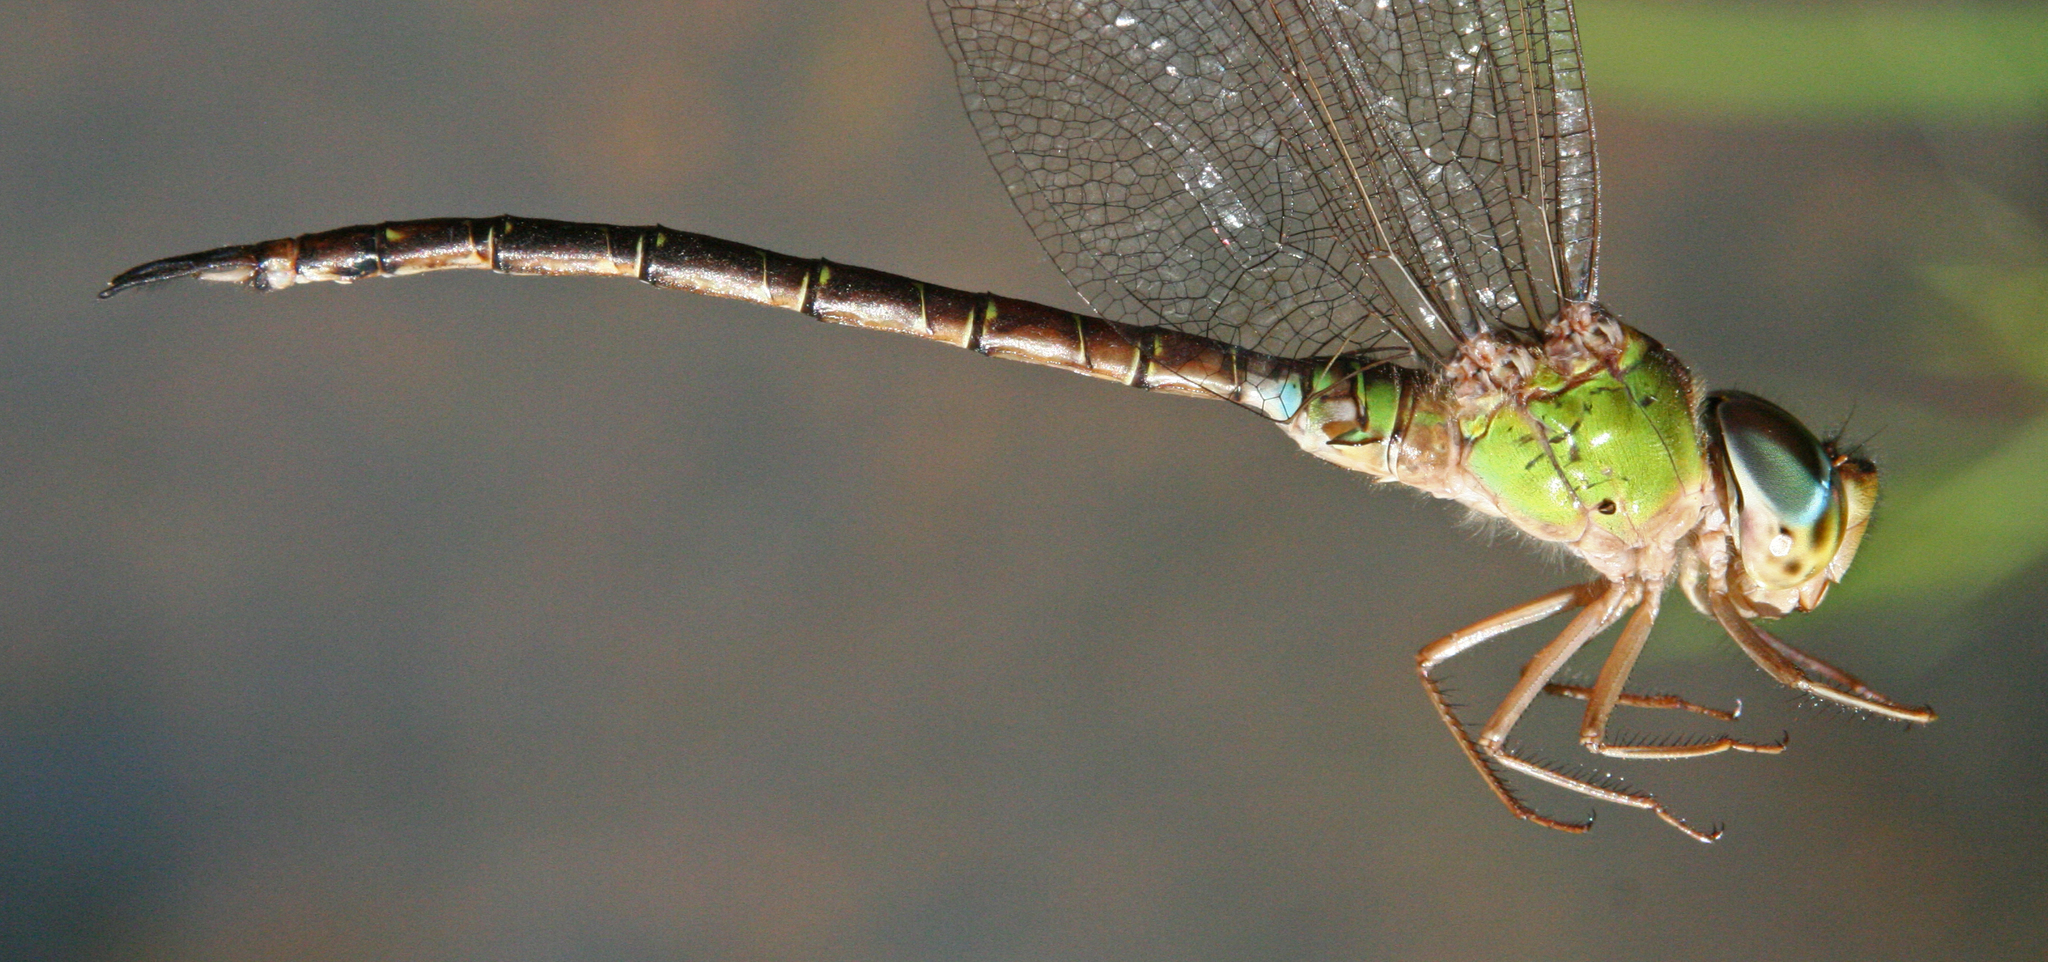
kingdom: Animalia
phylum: Arthropoda
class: Insecta
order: Odonata
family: Aeshnidae
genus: Gynacantha
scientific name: Gynacantha saltatrix
